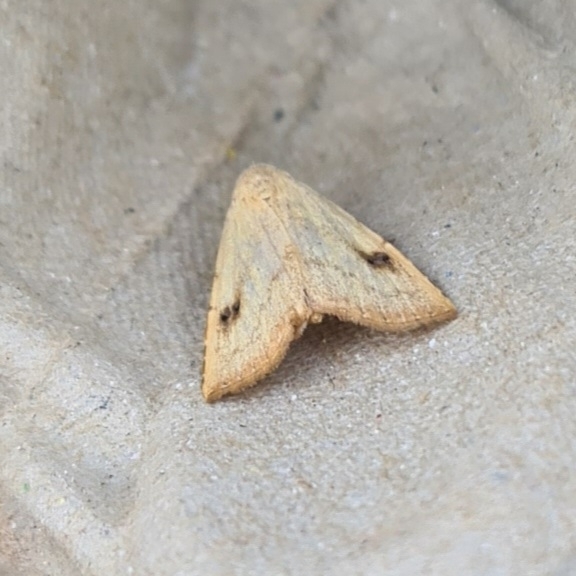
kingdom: Animalia
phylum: Arthropoda
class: Insecta
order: Lepidoptera
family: Erebidae
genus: Rivula
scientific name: Rivula sericealis
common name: Straw dot
